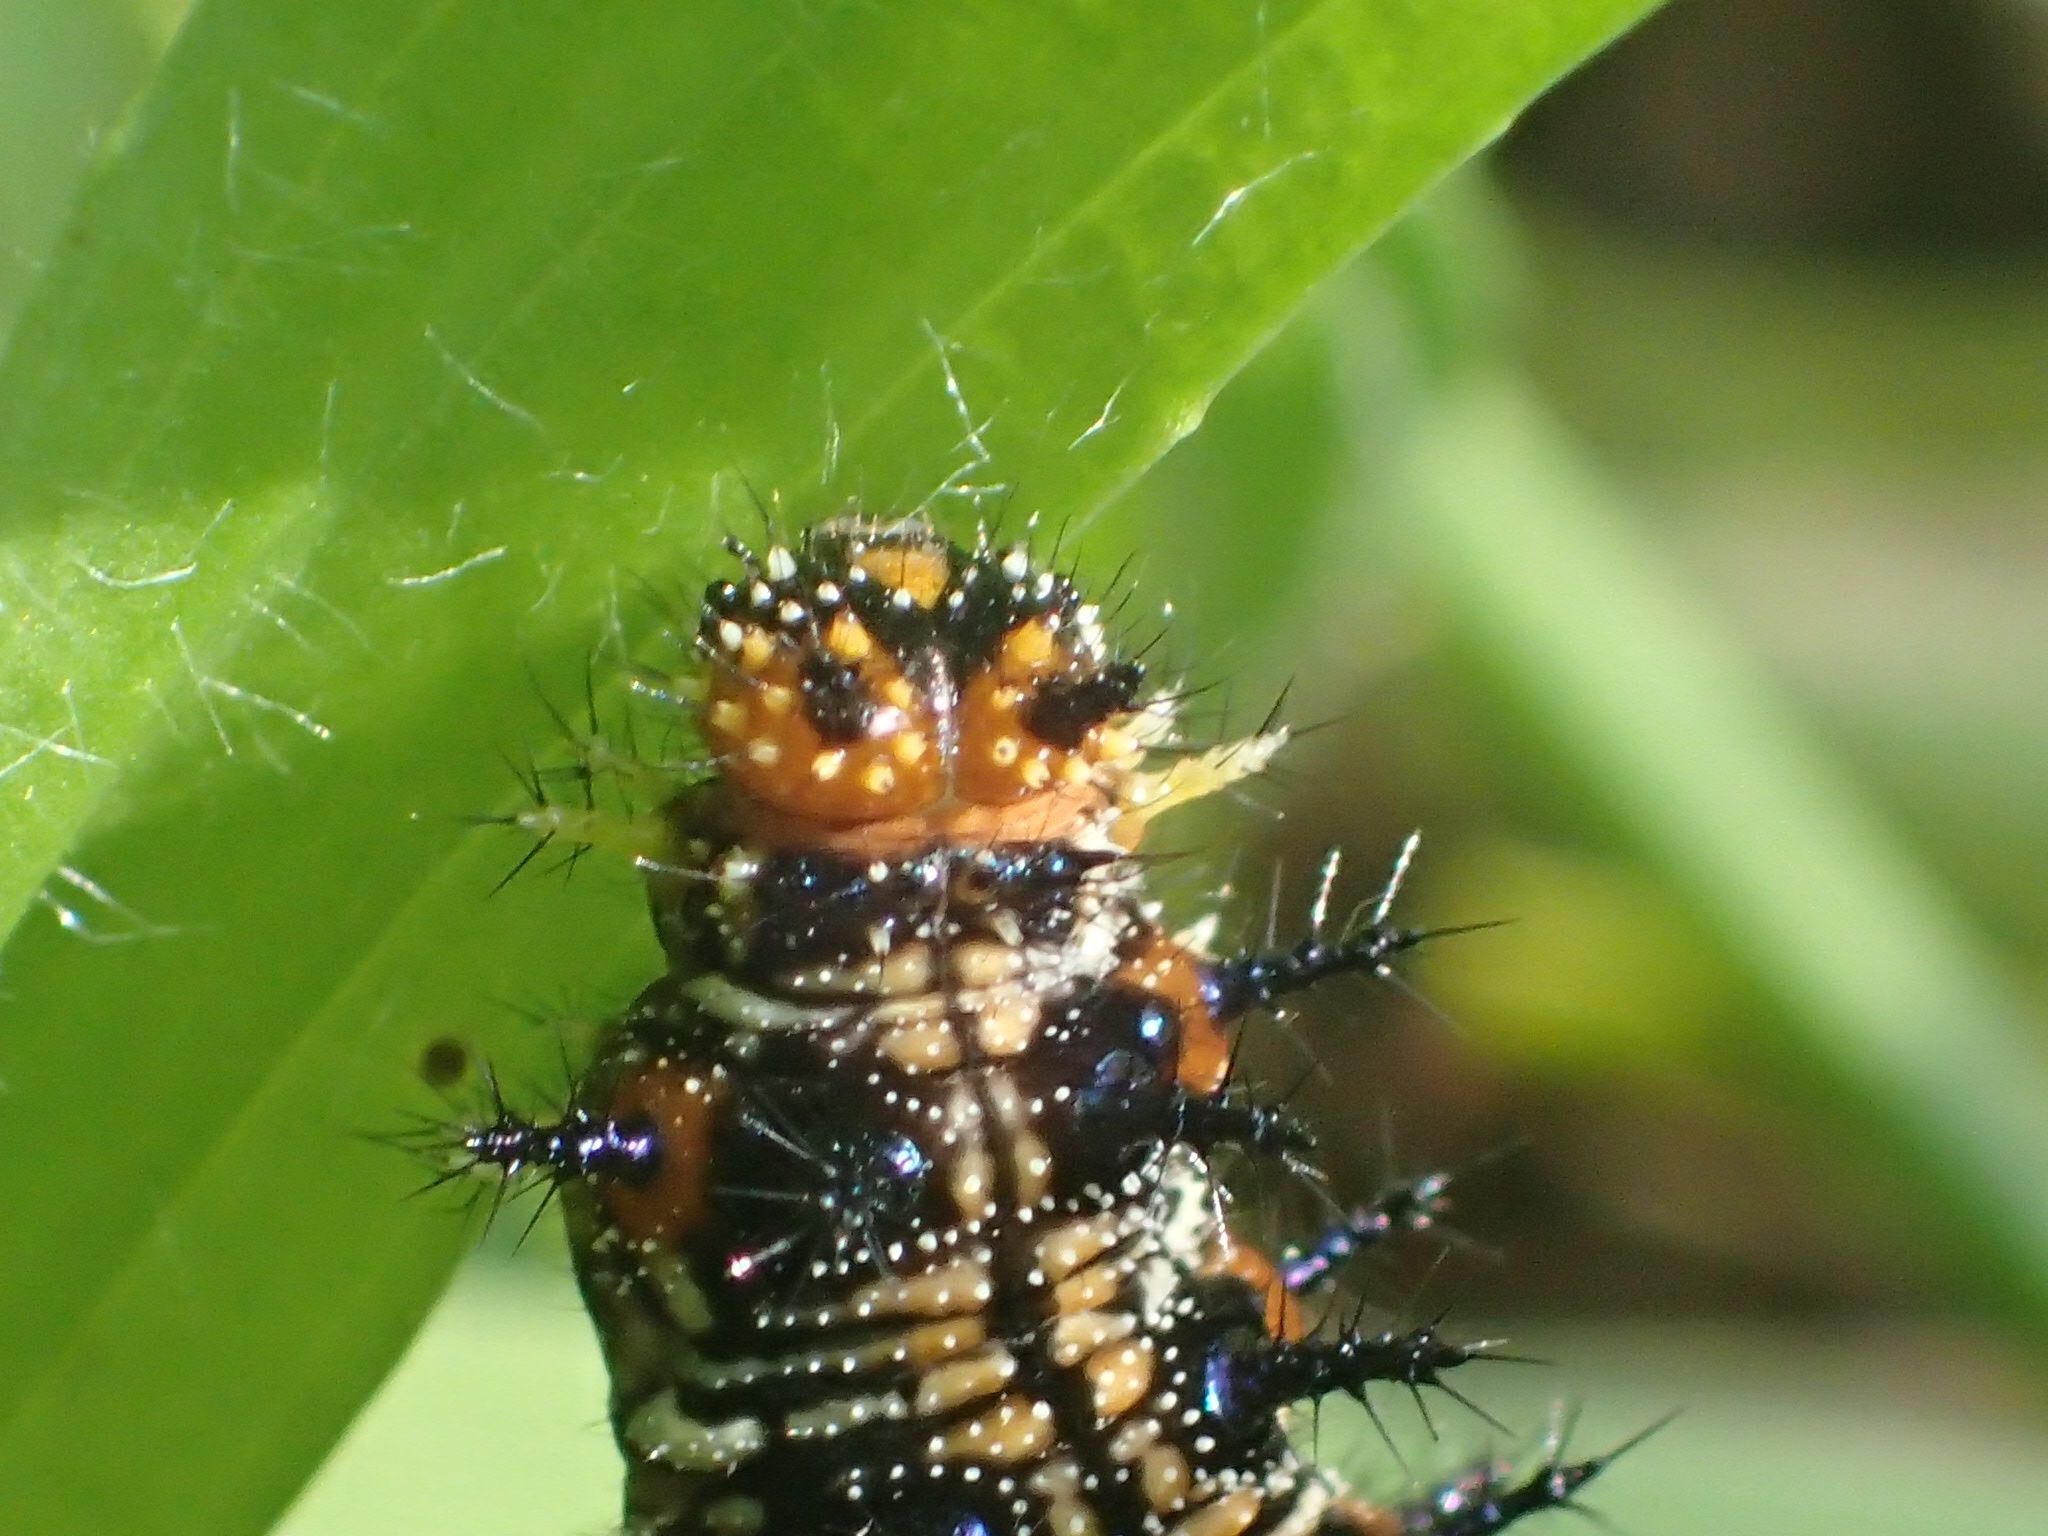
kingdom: Animalia
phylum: Arthropoda
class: Insecta
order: Lepidoptera
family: Nymphalidae
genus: Junonia
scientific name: Junonia coenia
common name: Common buckeye
